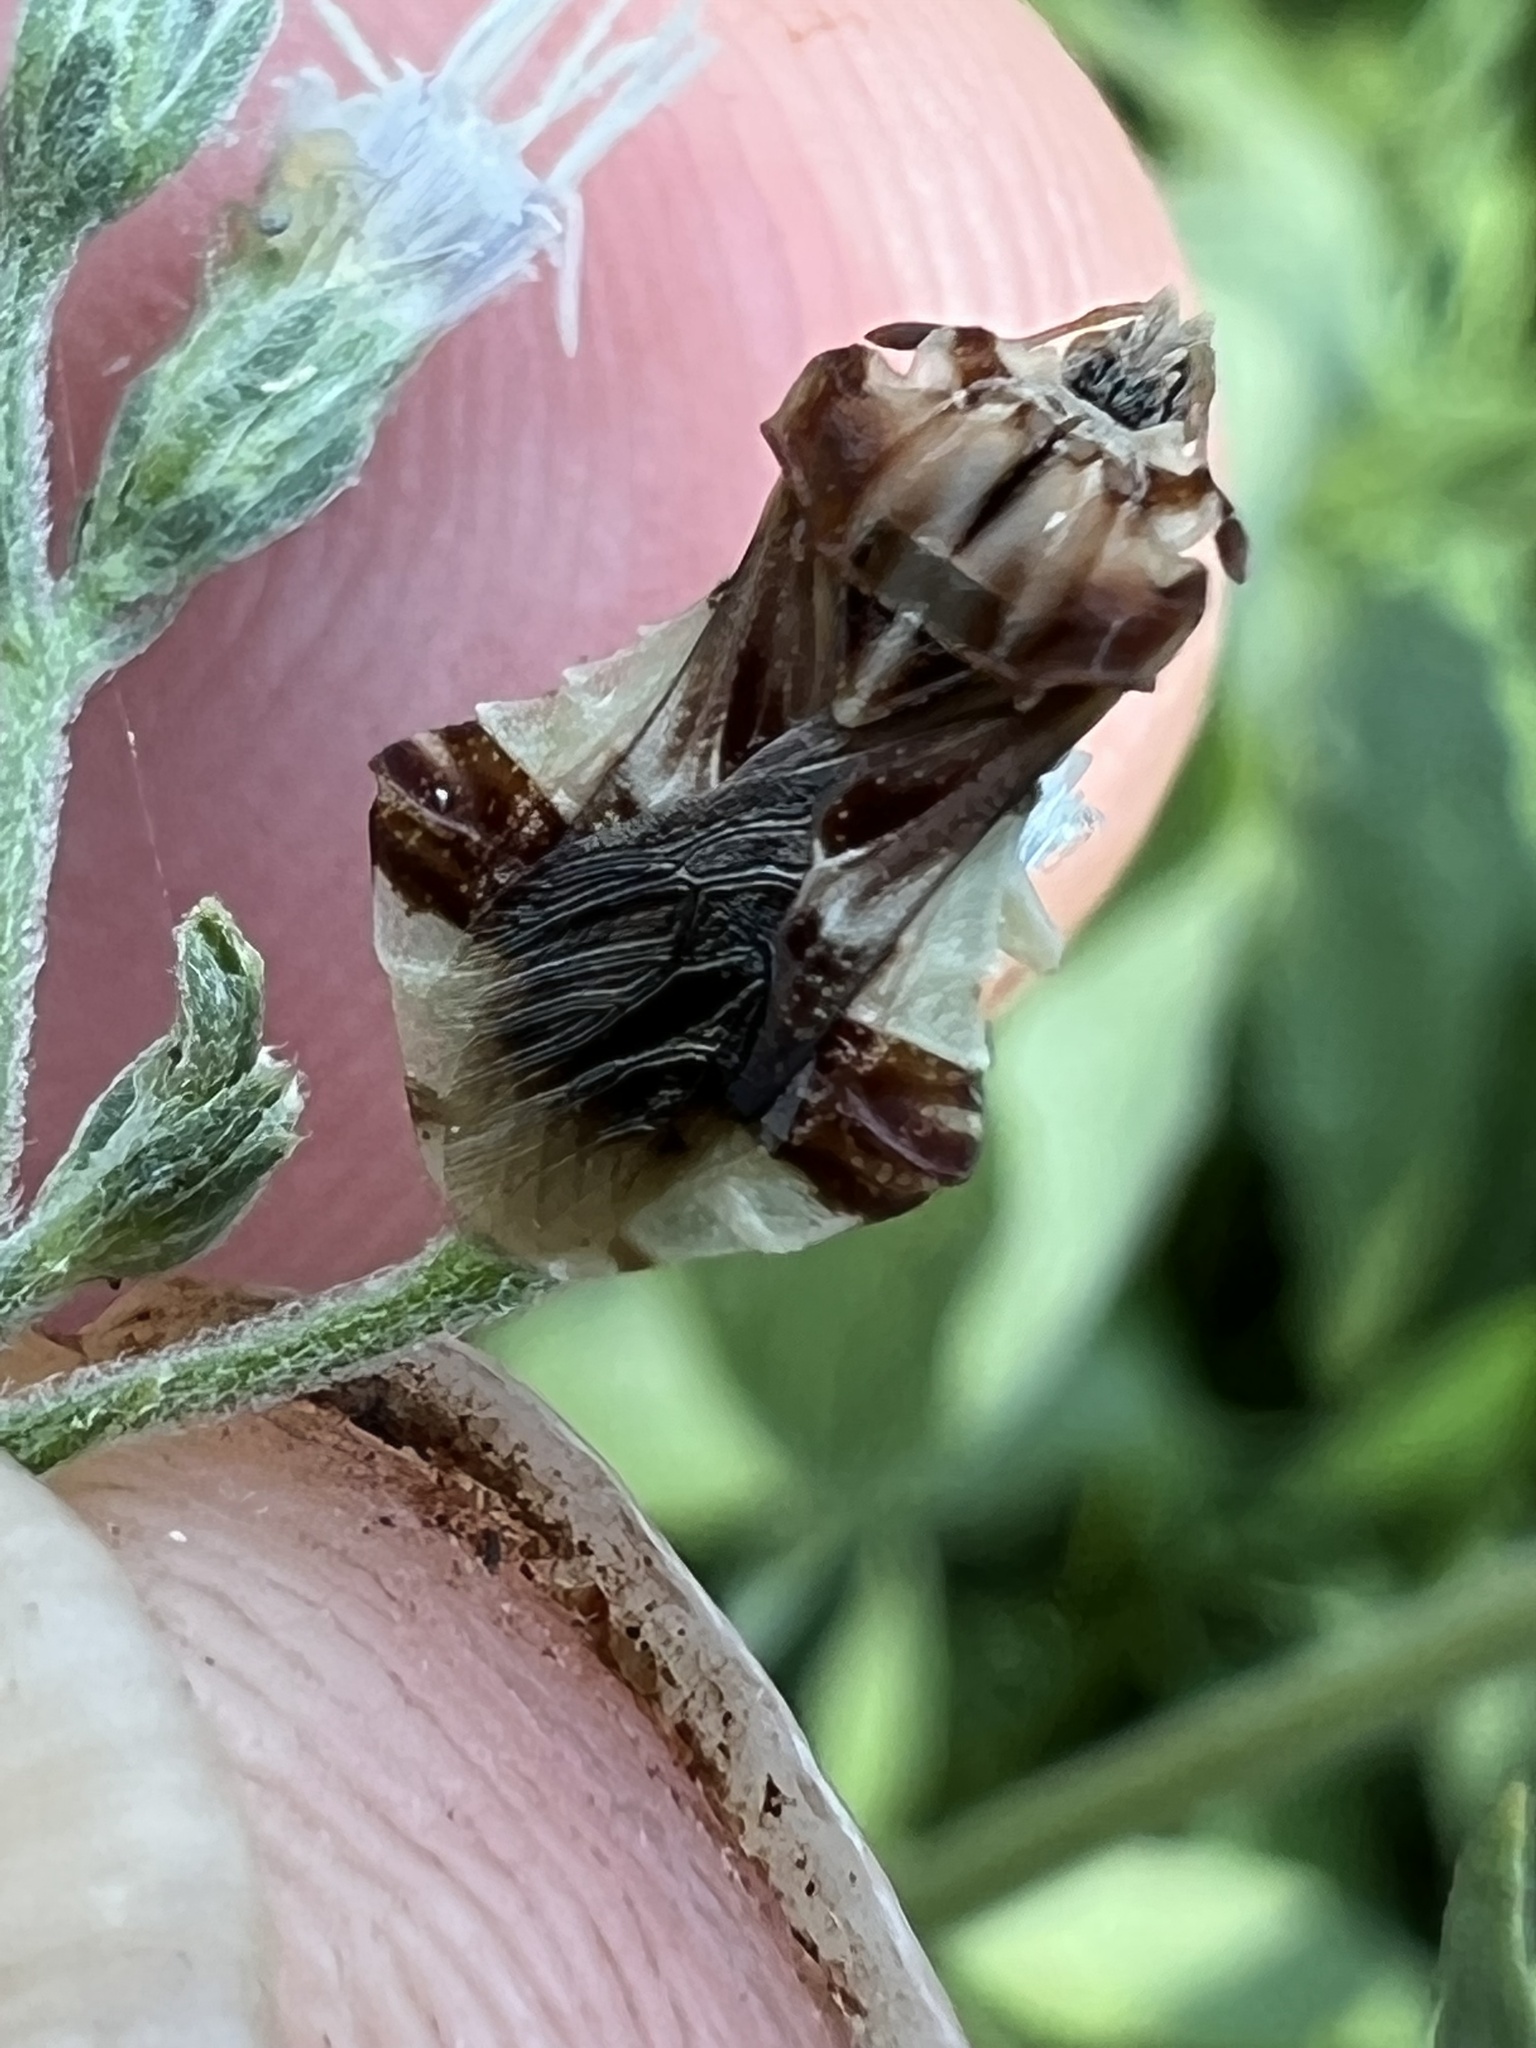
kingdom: Animalia
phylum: Arthropoda
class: Insecta
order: Hemiptera
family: Reduviidae
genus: Phymata
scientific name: Phymata fasciata
